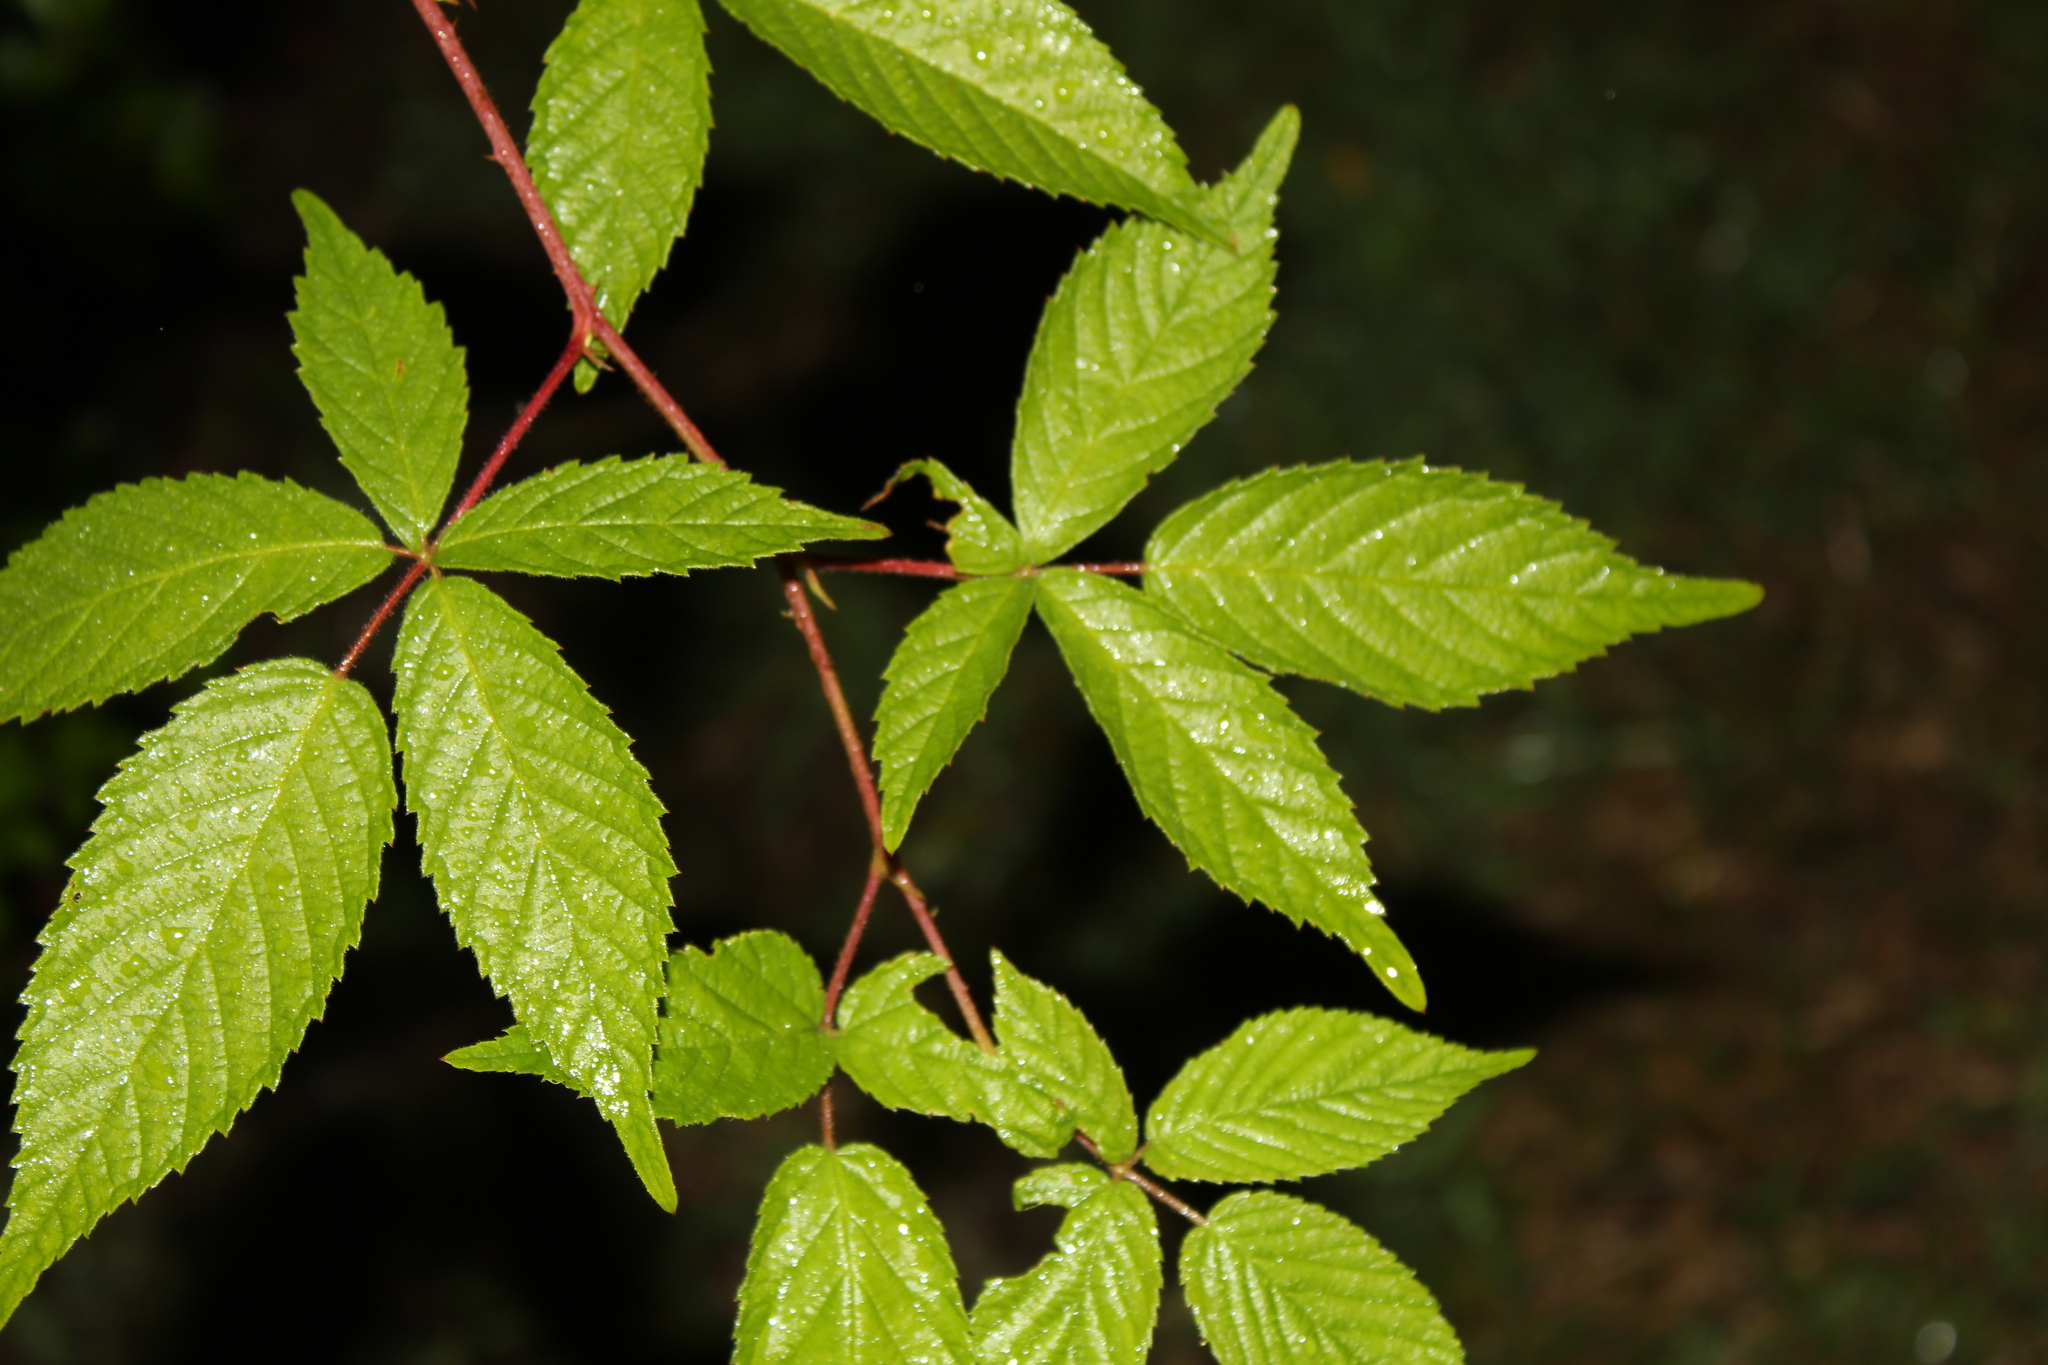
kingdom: Plantae
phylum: Tracheophyta
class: Magnoliopsida
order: Rosales
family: Rosaceae
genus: Rubus
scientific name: Rubus allegheniensis
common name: Allegheny blackberry
